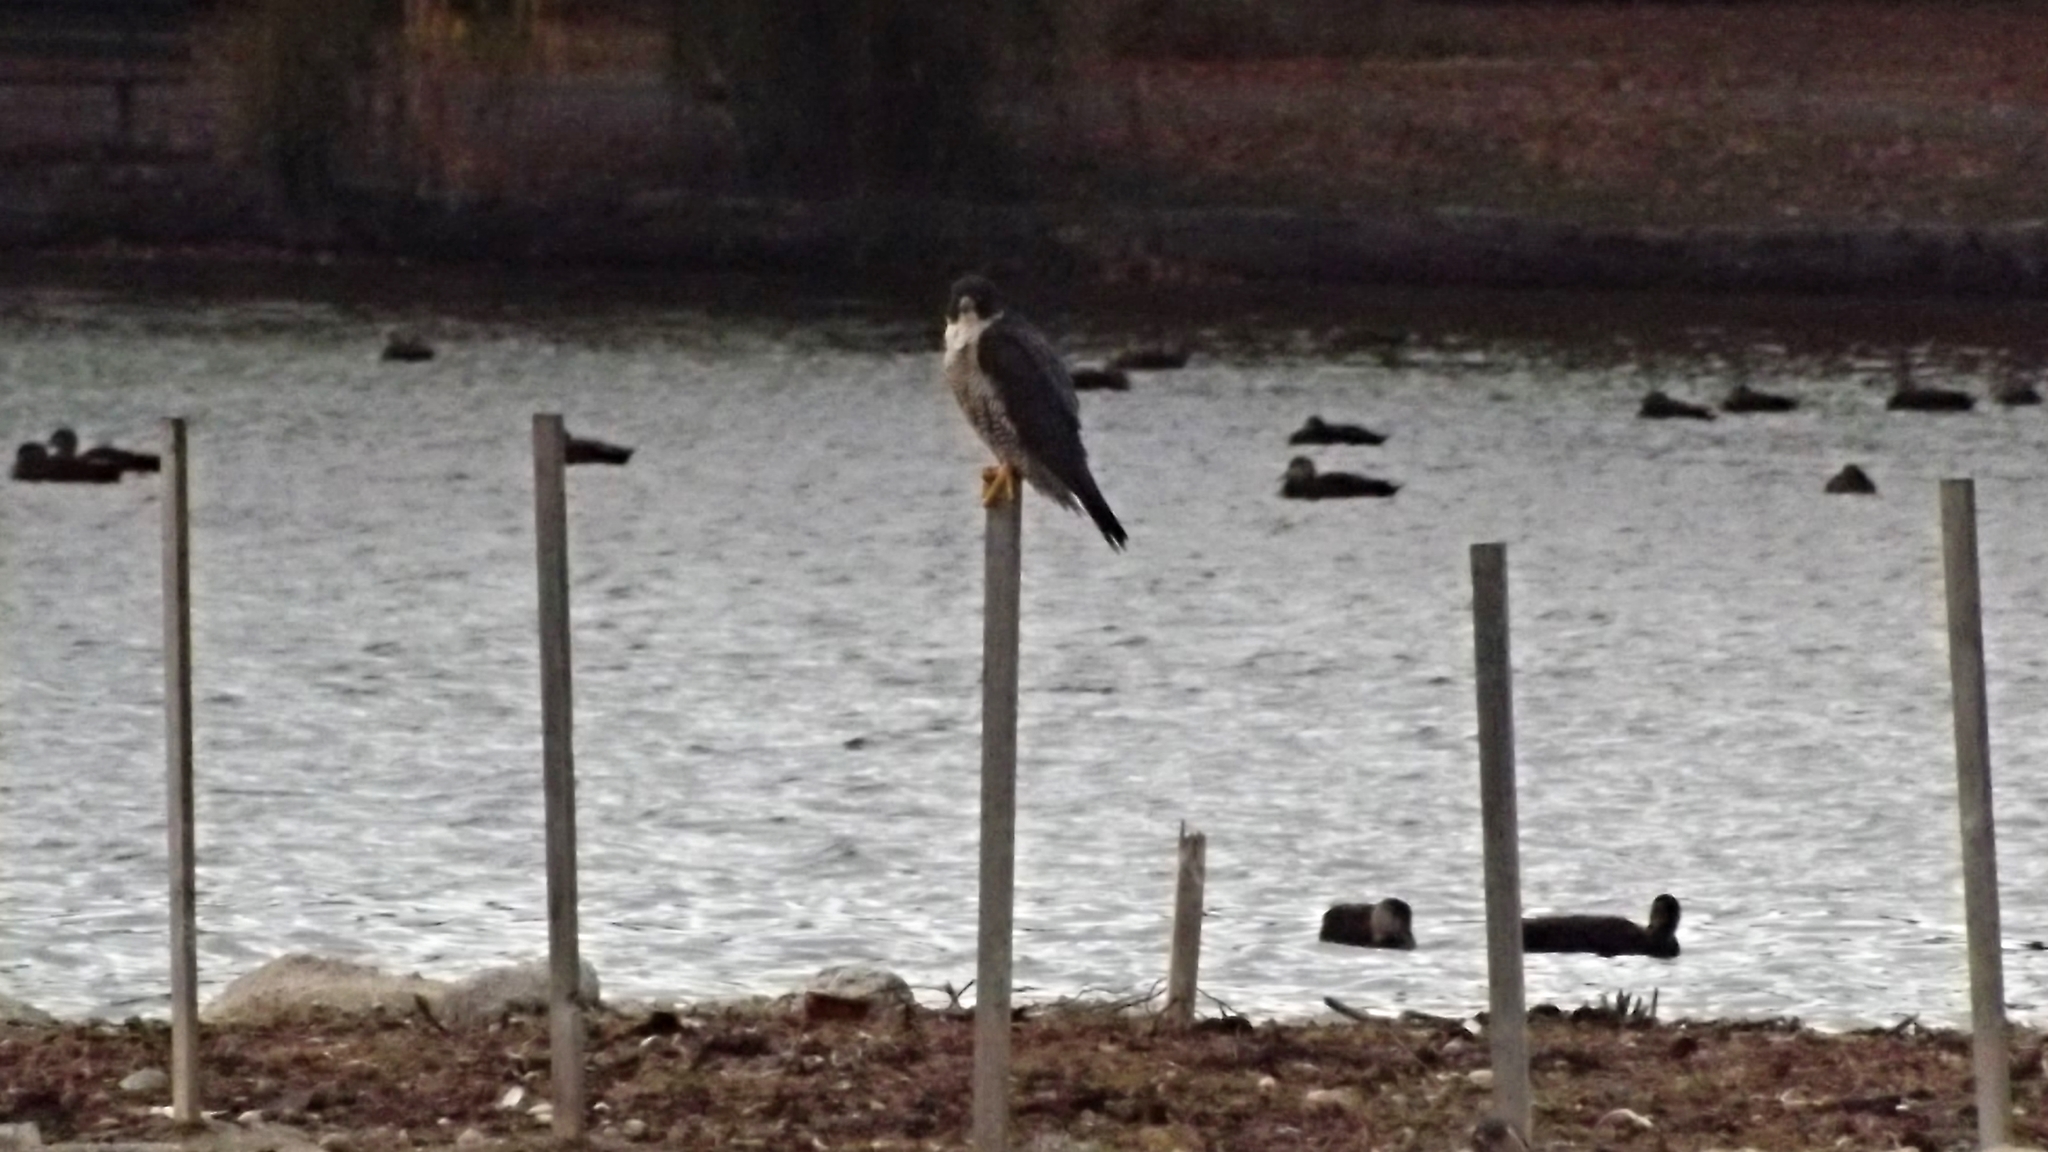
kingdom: Animalia
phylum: Chordata
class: Aves
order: Falconiformes
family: Falconidae
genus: Falco
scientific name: Falco peregrinus
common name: Peregrine falcon
